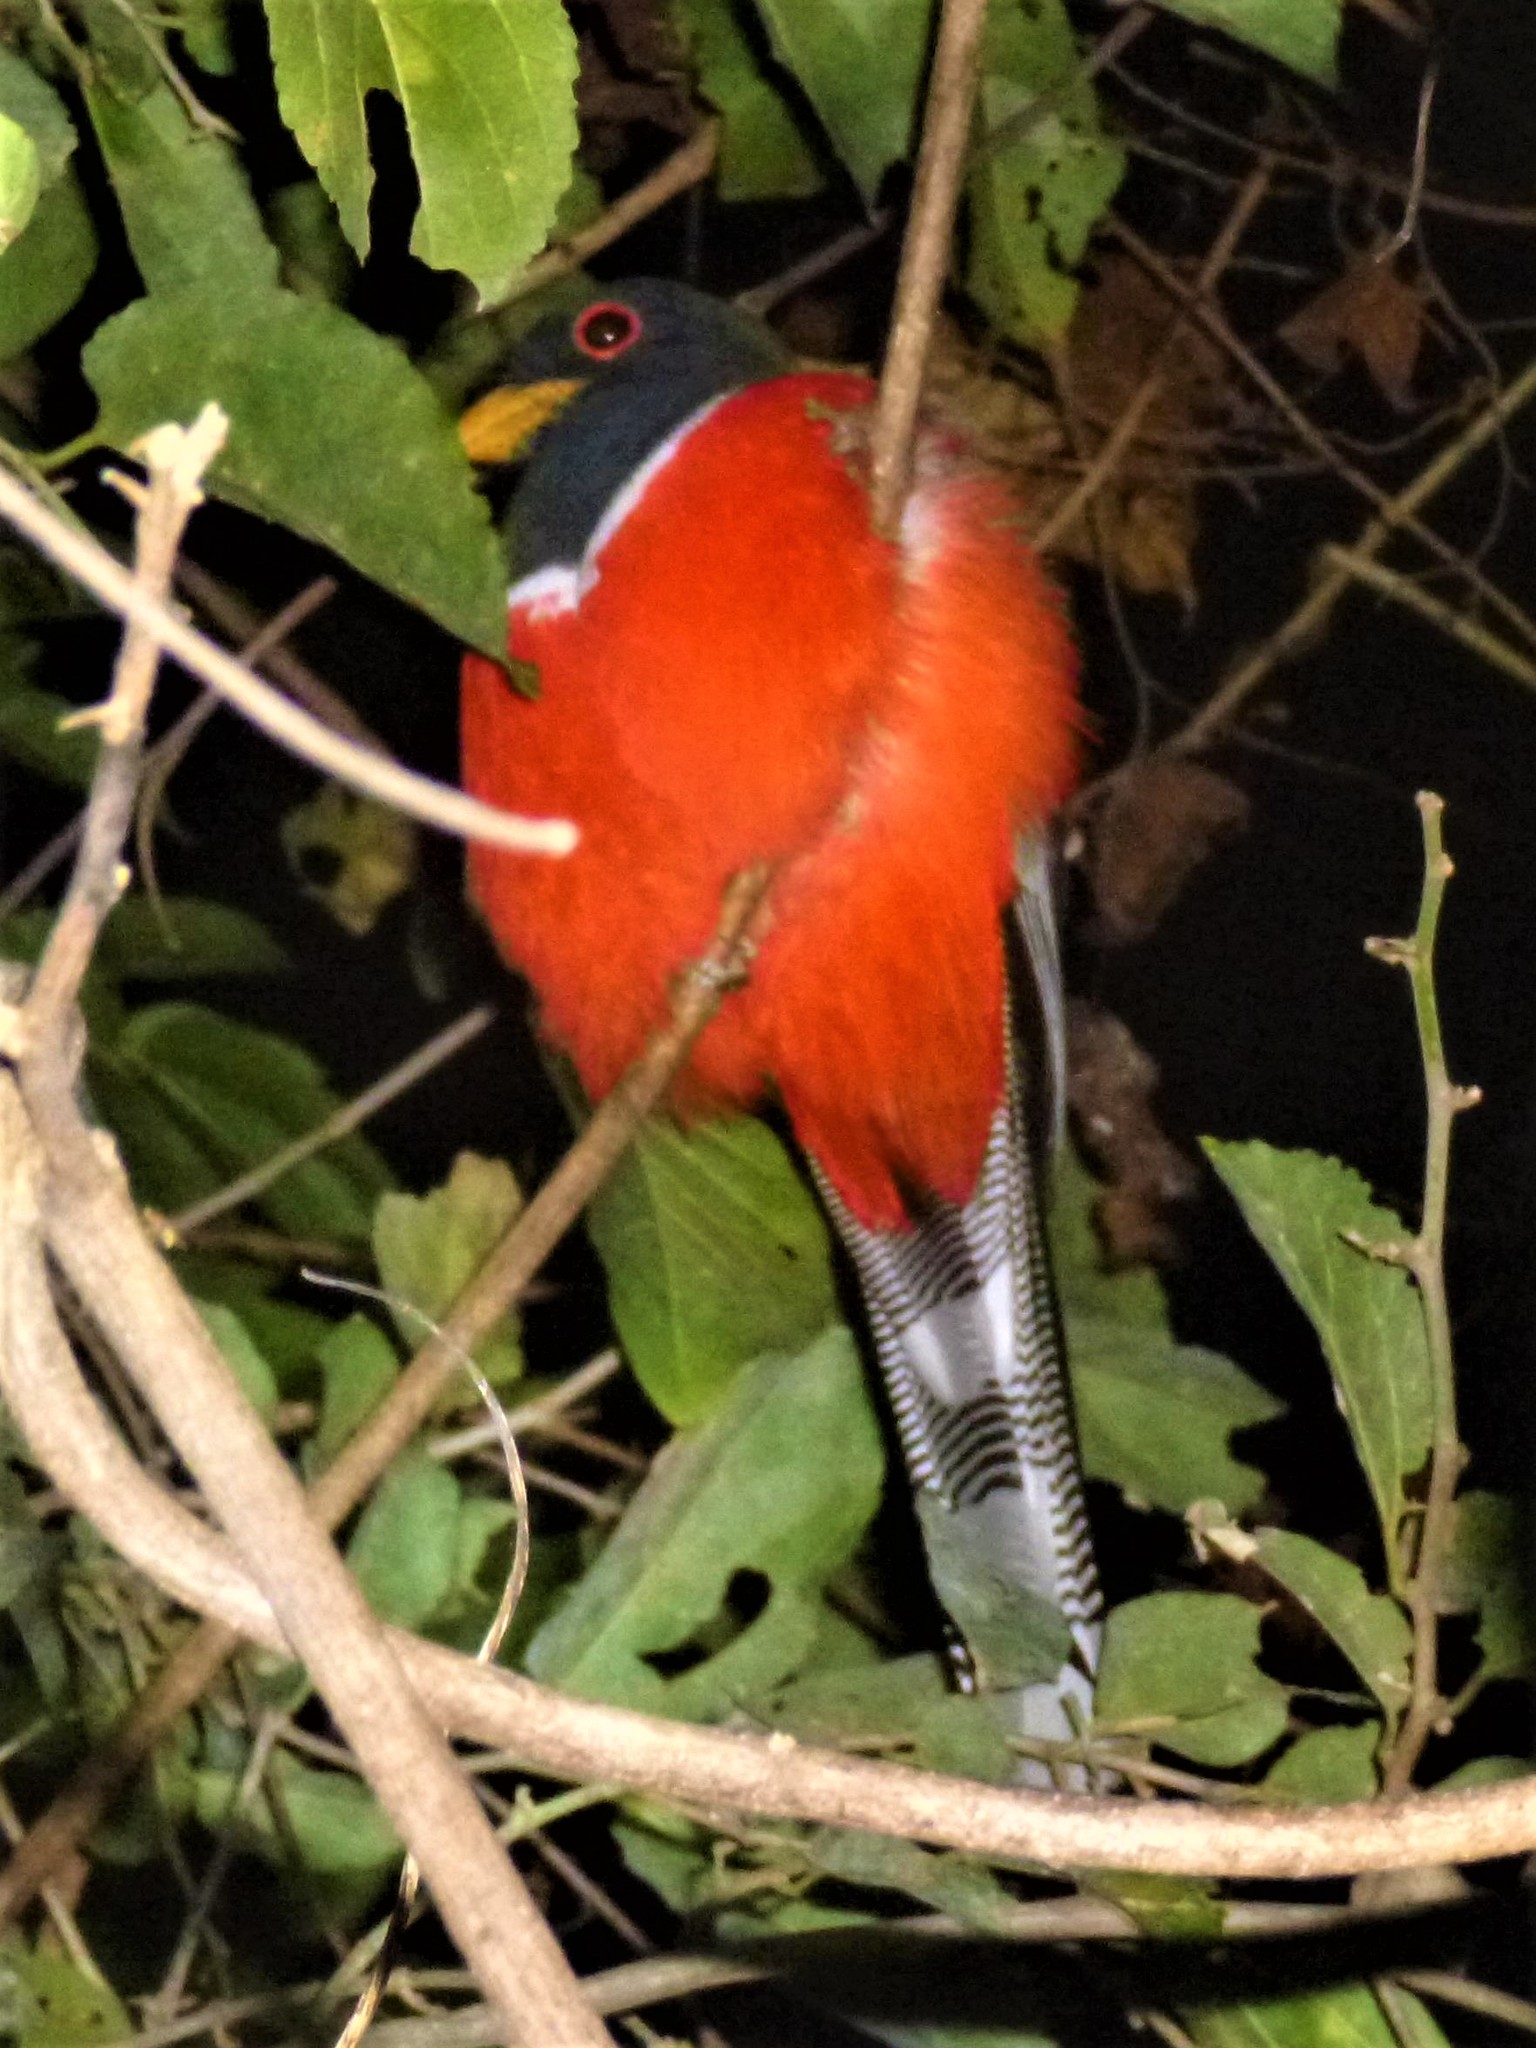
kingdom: Animalia
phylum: Chordata
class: Aves
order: Trogoniformes
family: Trogonidae
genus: Trogon
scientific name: Trogon elegans
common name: Elegant trogon
